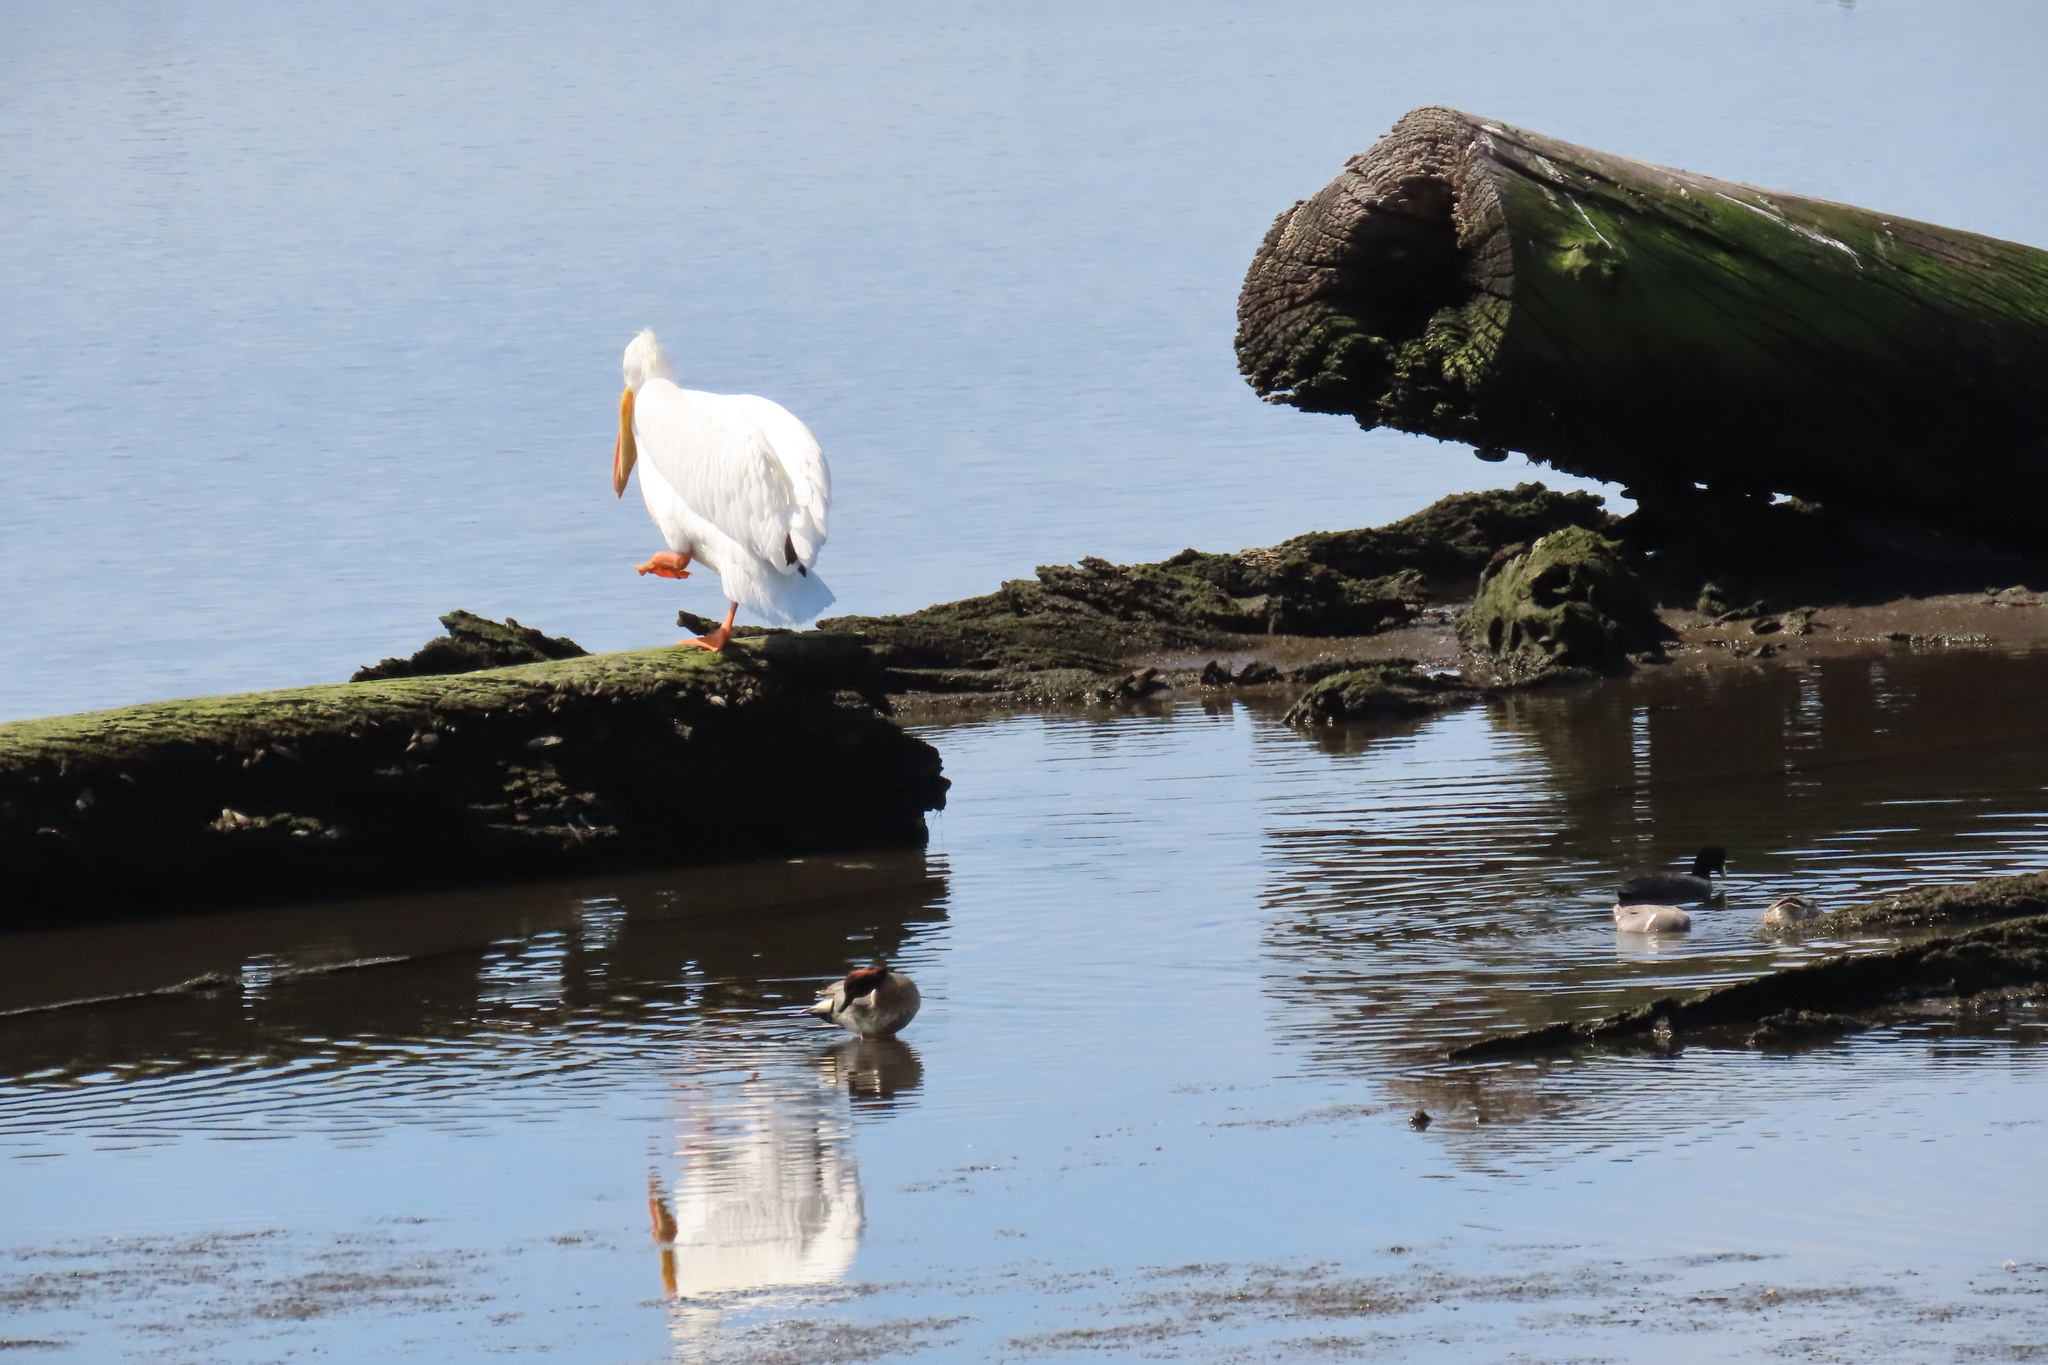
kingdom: Animalia
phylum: Chordata
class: Aves
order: Pelecaniformes
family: Pelecanidae
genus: Pelecanus
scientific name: Pelecanus erythrorhynchos
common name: American white pelican
